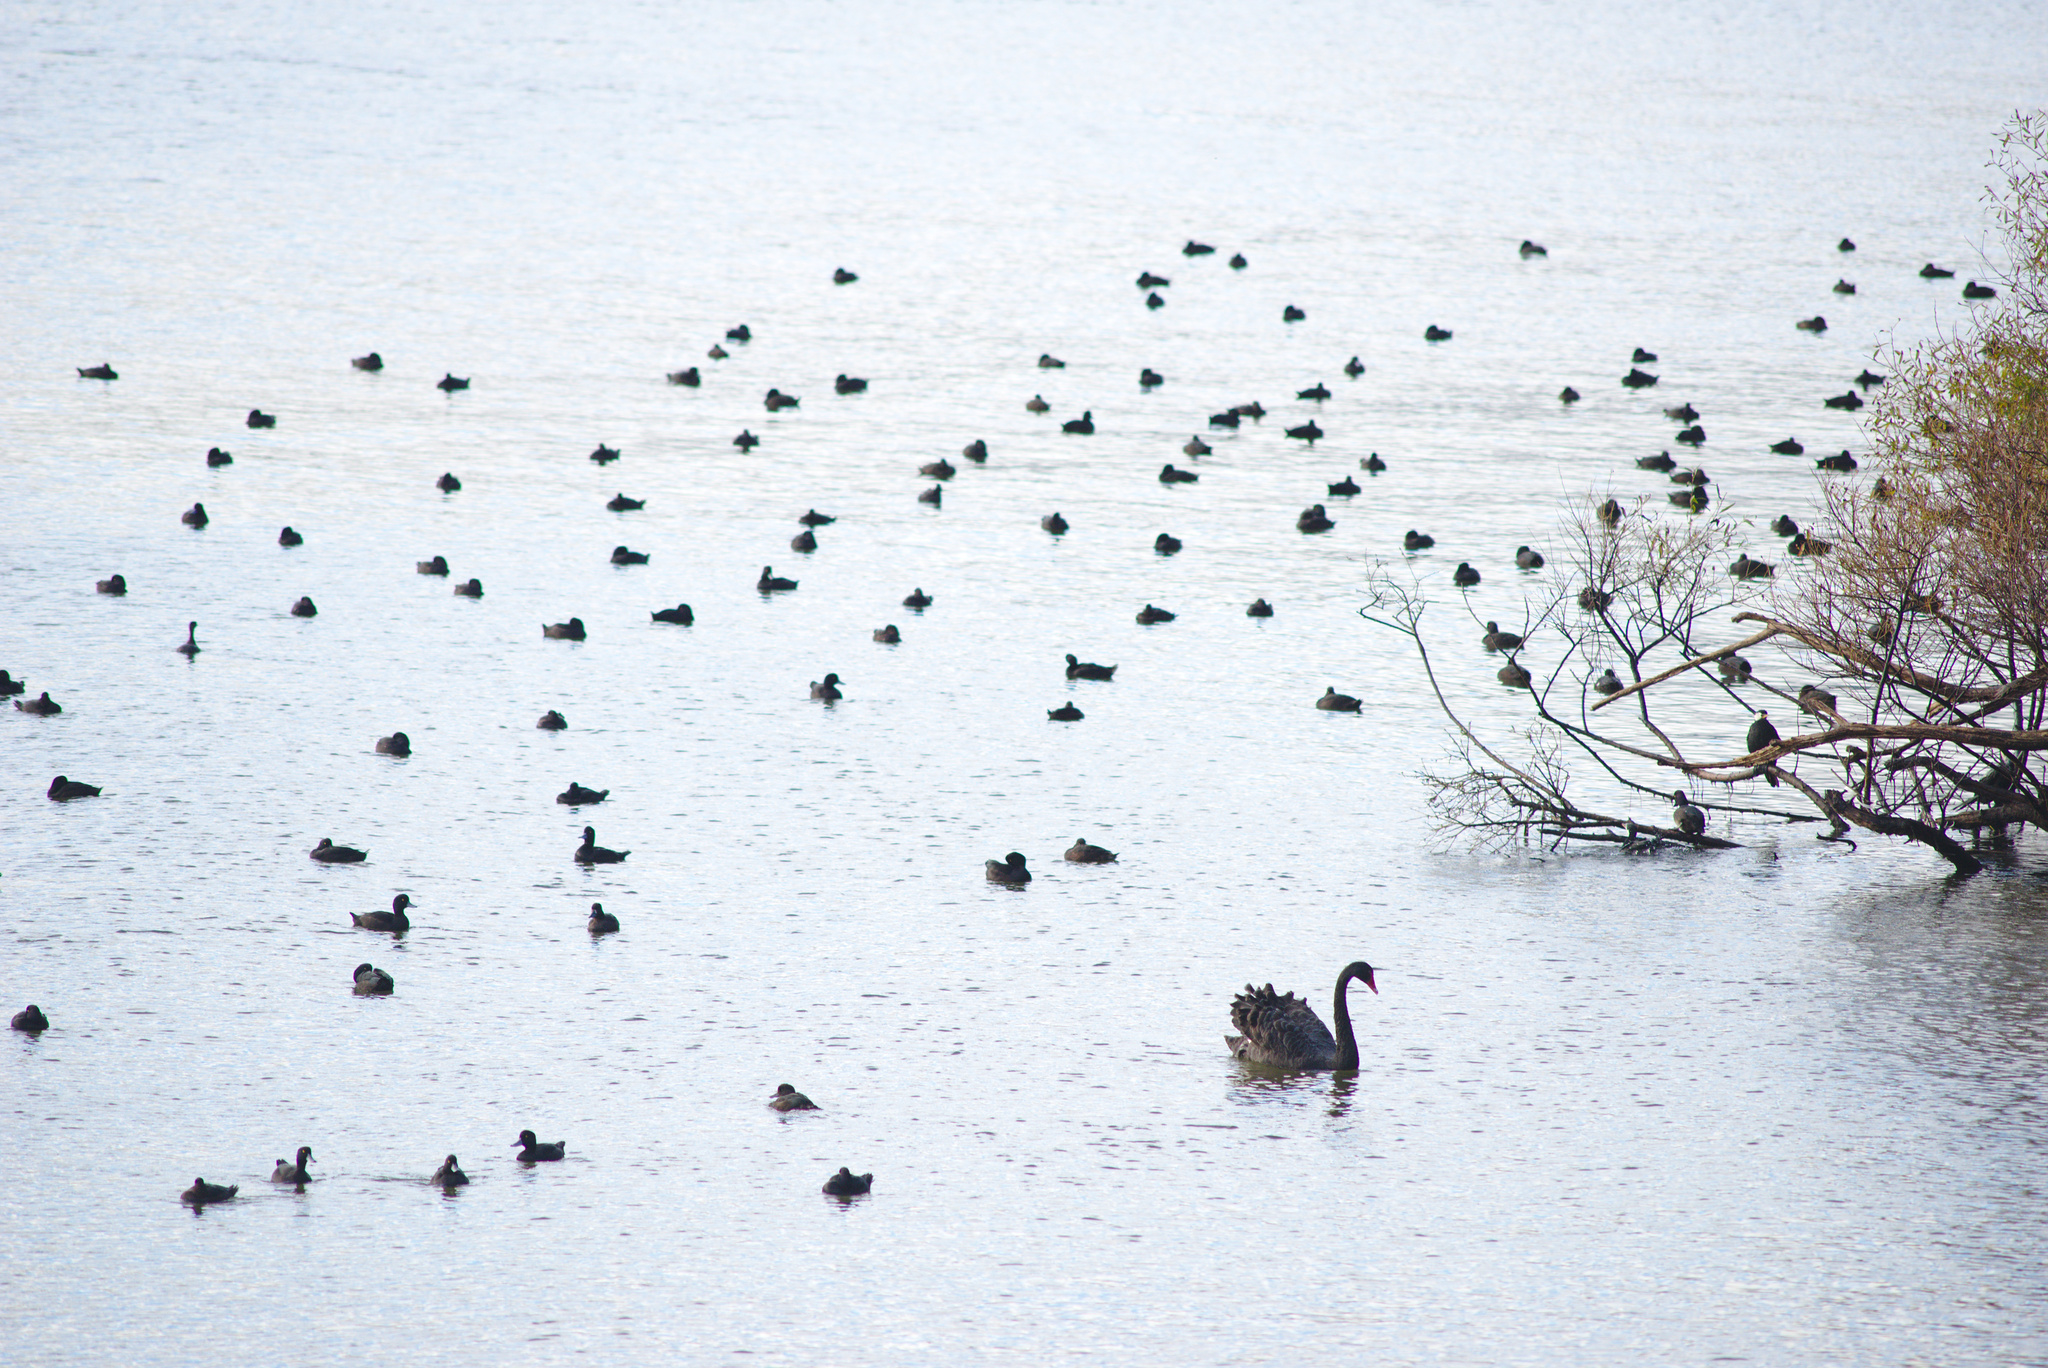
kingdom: Animalia
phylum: Chordata
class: Aves
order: Anseriformes
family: Anatidae
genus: Cygnus
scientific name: Cygnus atratus
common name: Black swan
